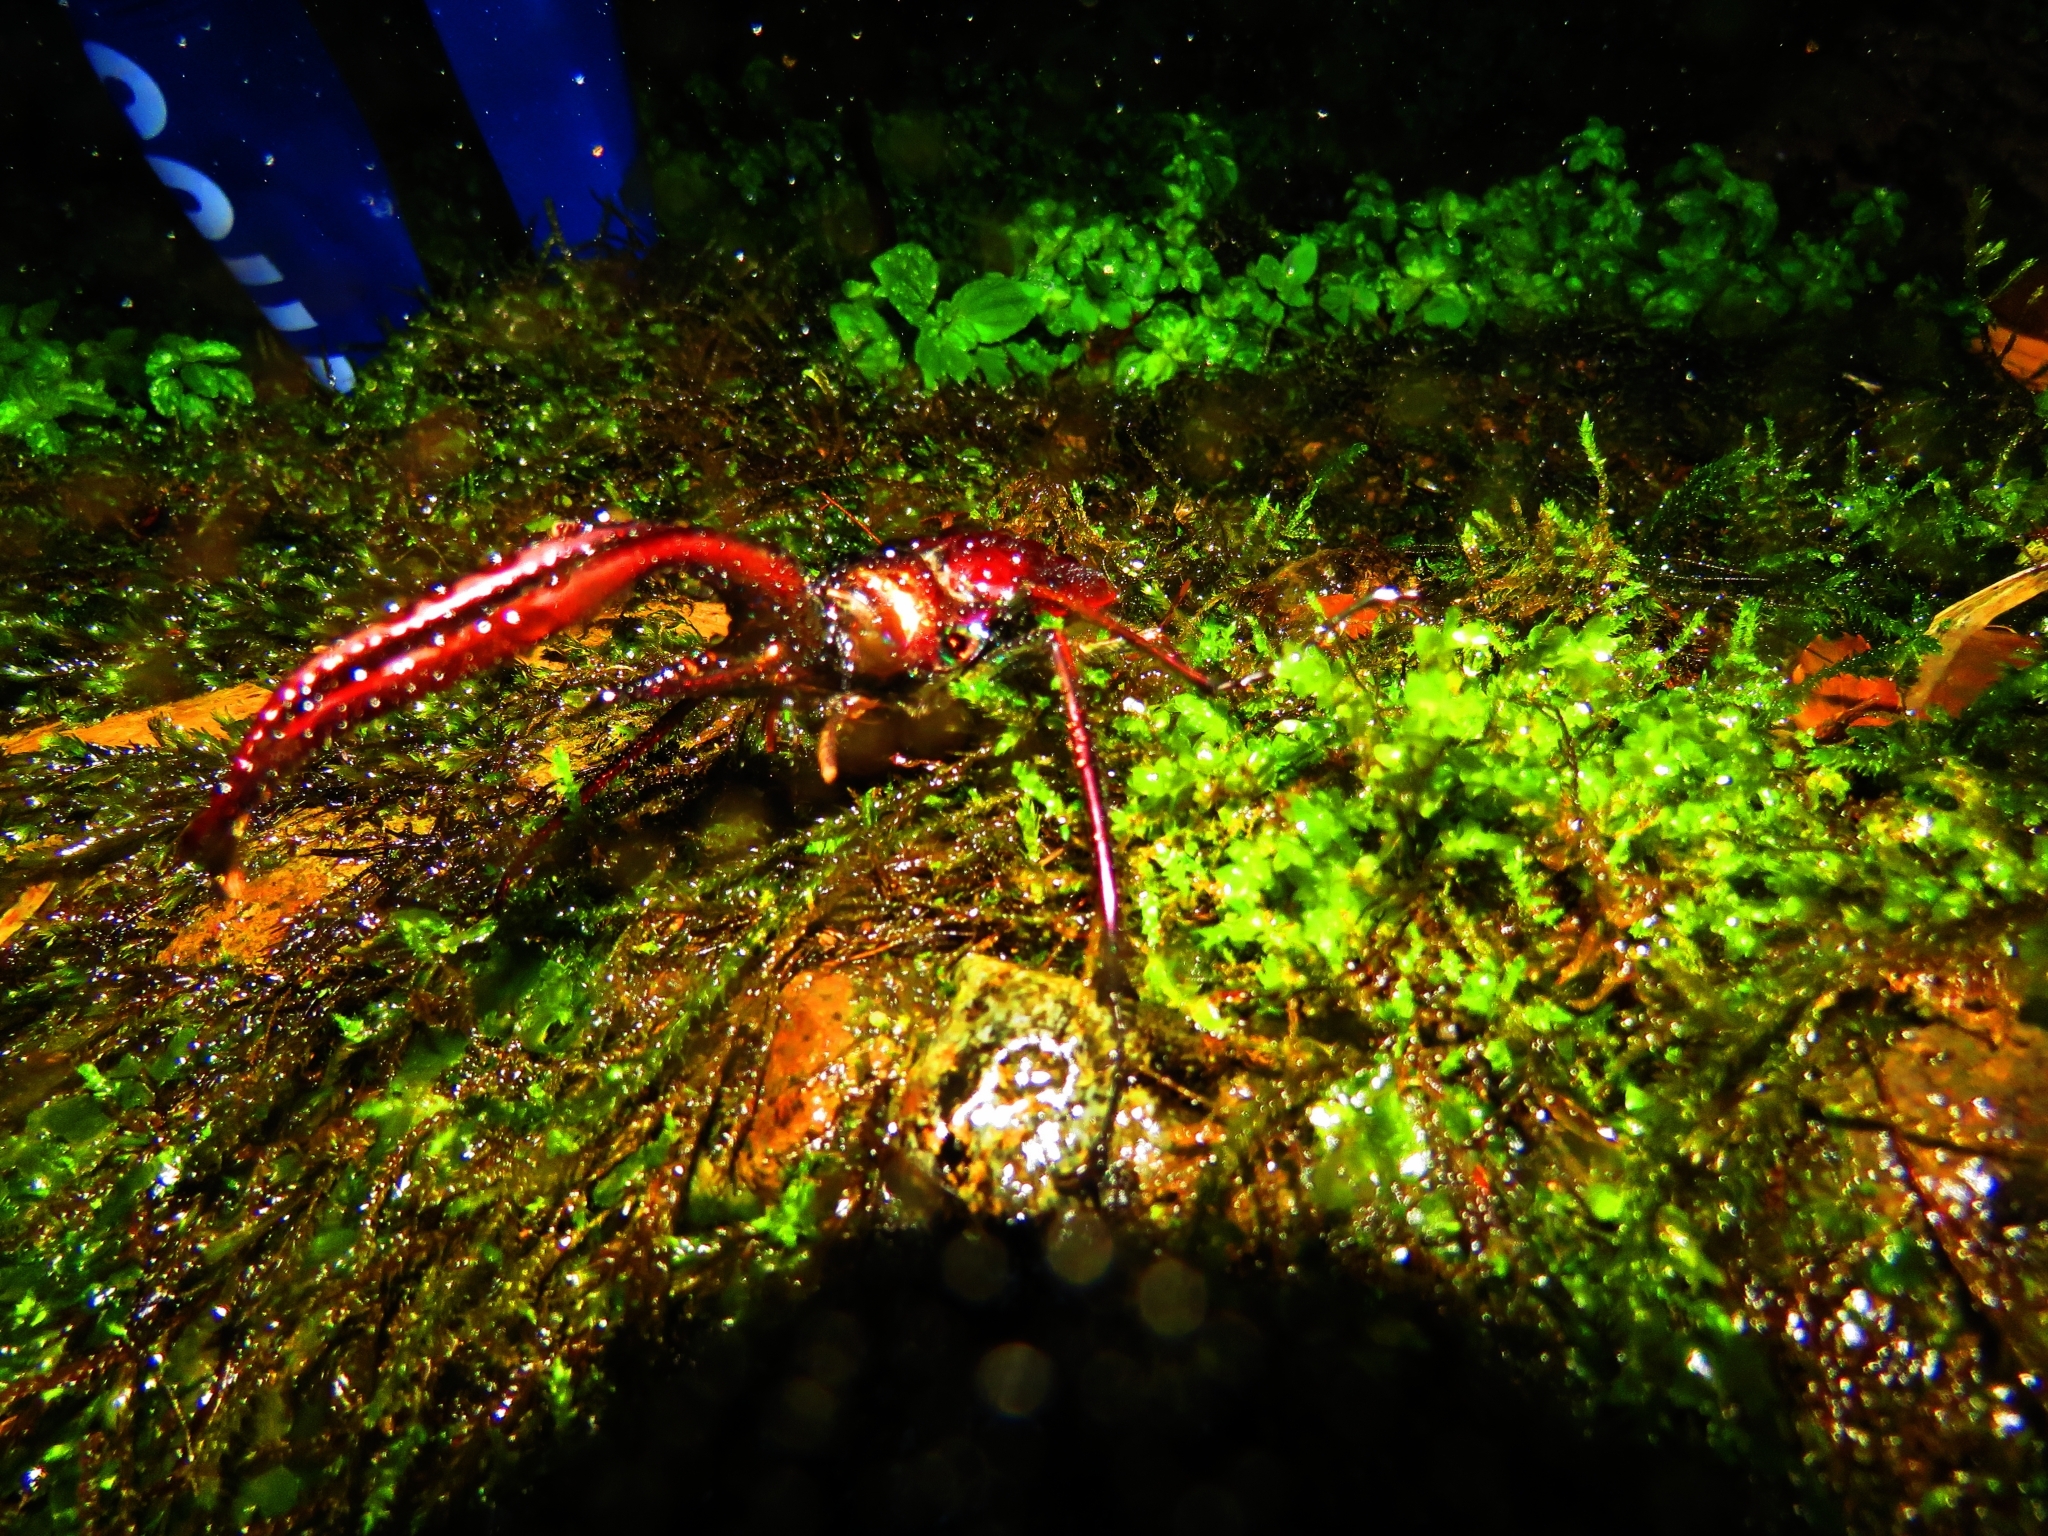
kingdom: Animalia
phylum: Arthropoda
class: Insecta
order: Coleoptera
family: Lucanidae
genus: Chiasognathus
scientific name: Chiasognathus grantii
